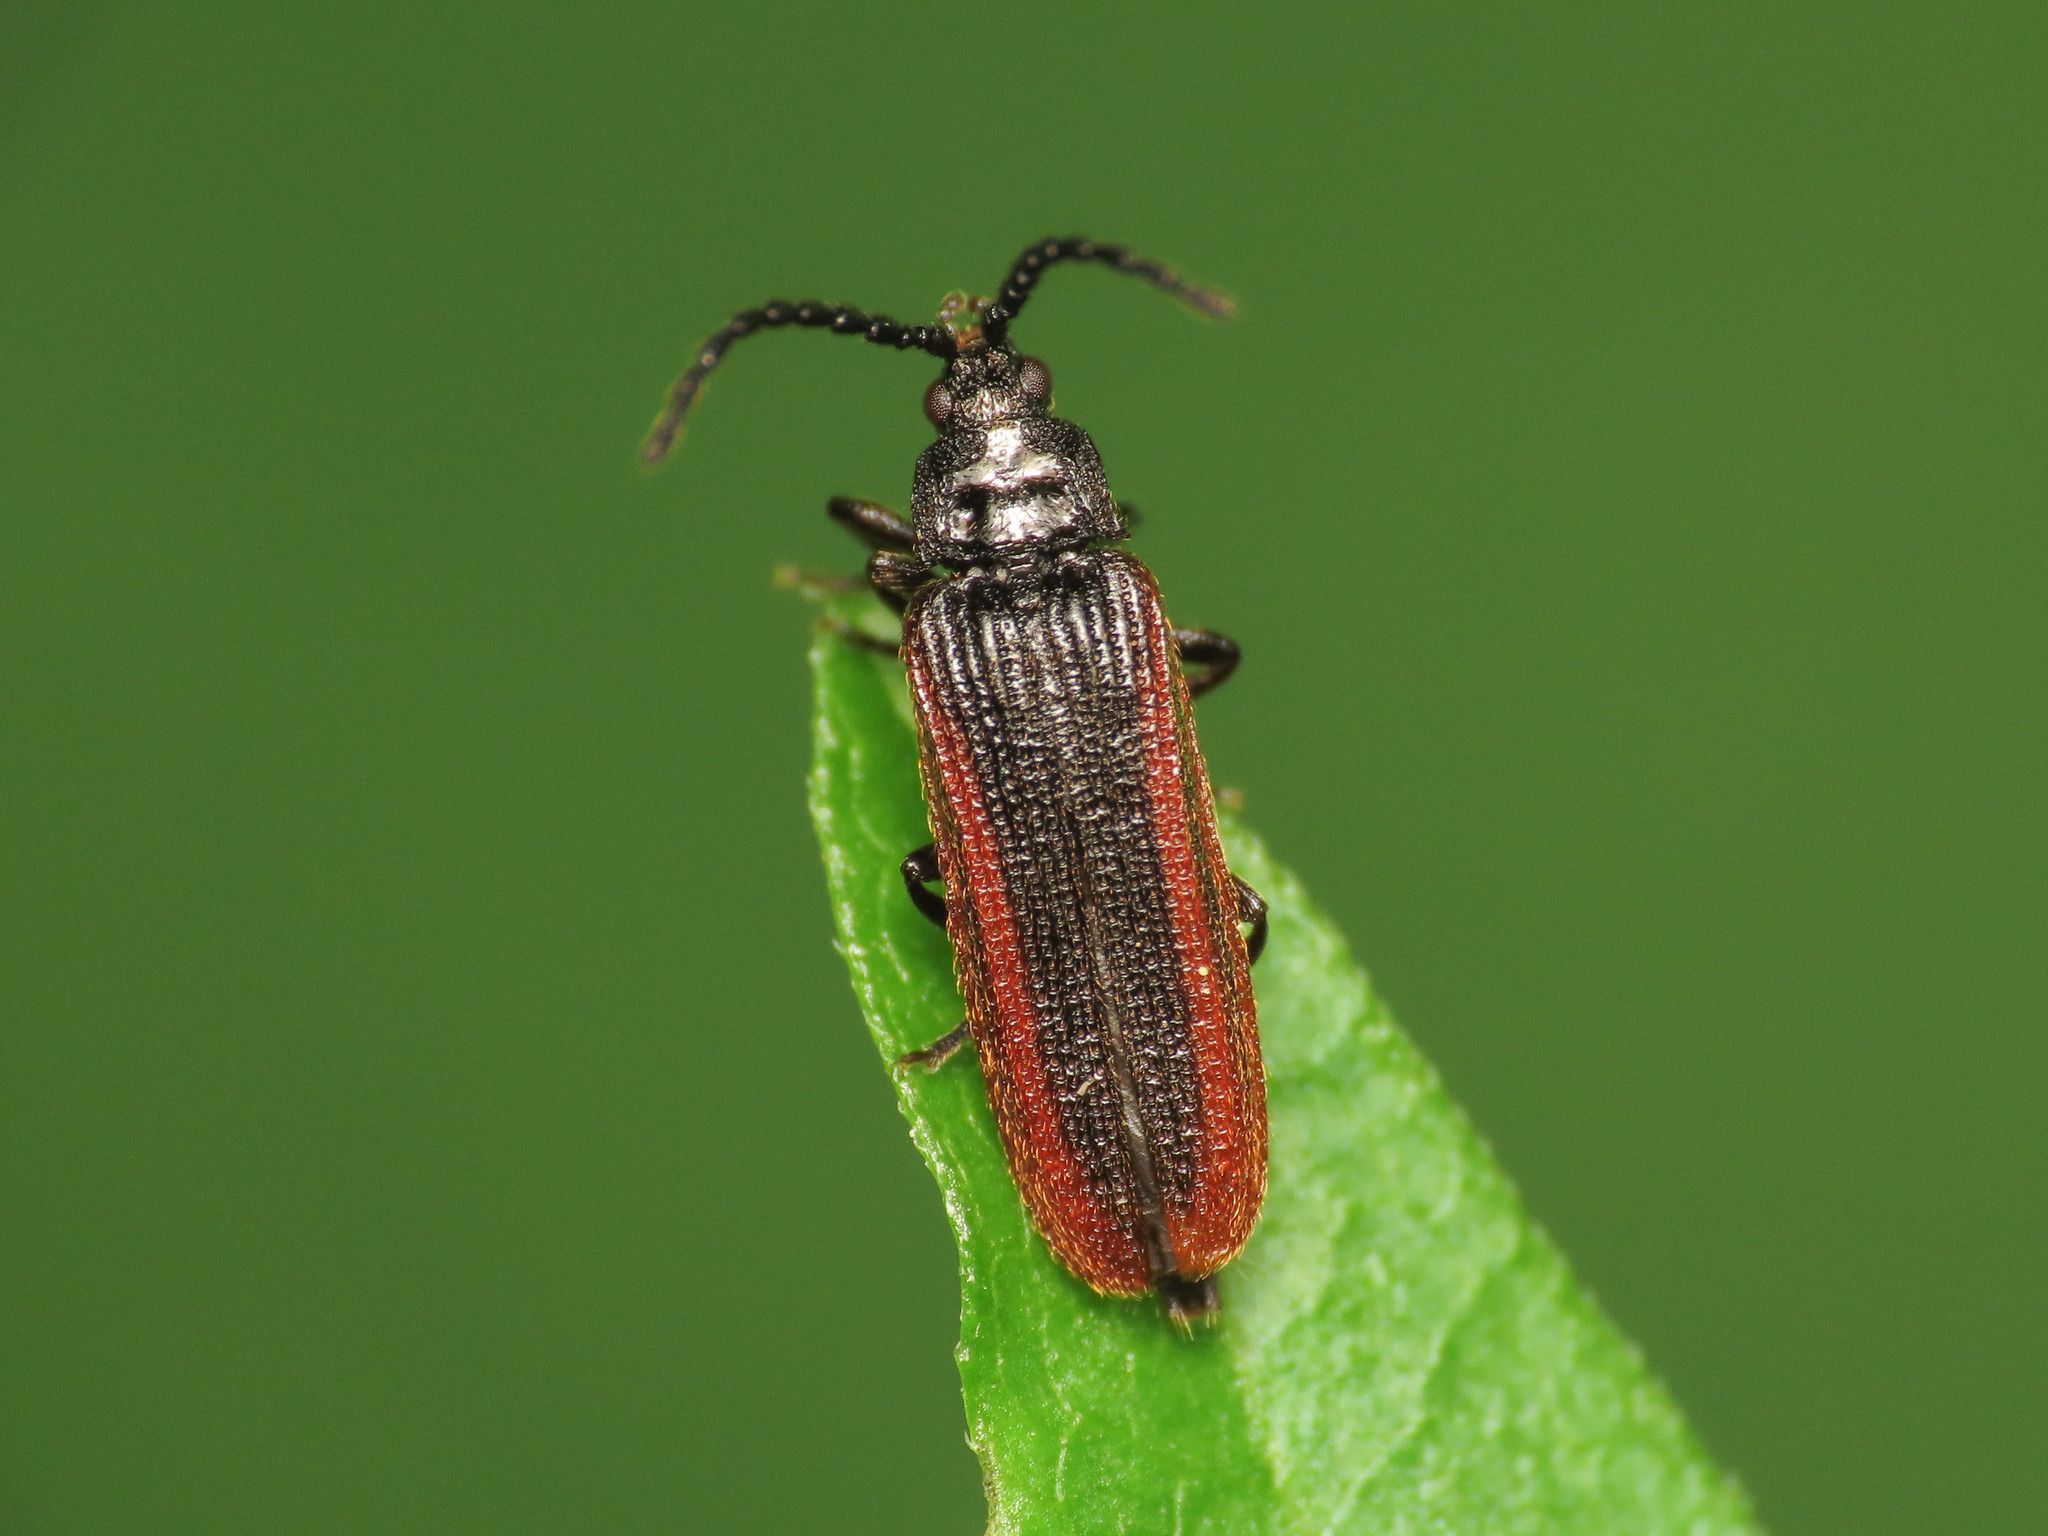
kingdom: Animalia
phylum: Arthropoda
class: Insecta
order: Coleoptera
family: Omalisidae
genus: Omalisus
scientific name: Omalisus fontisbellaquei
